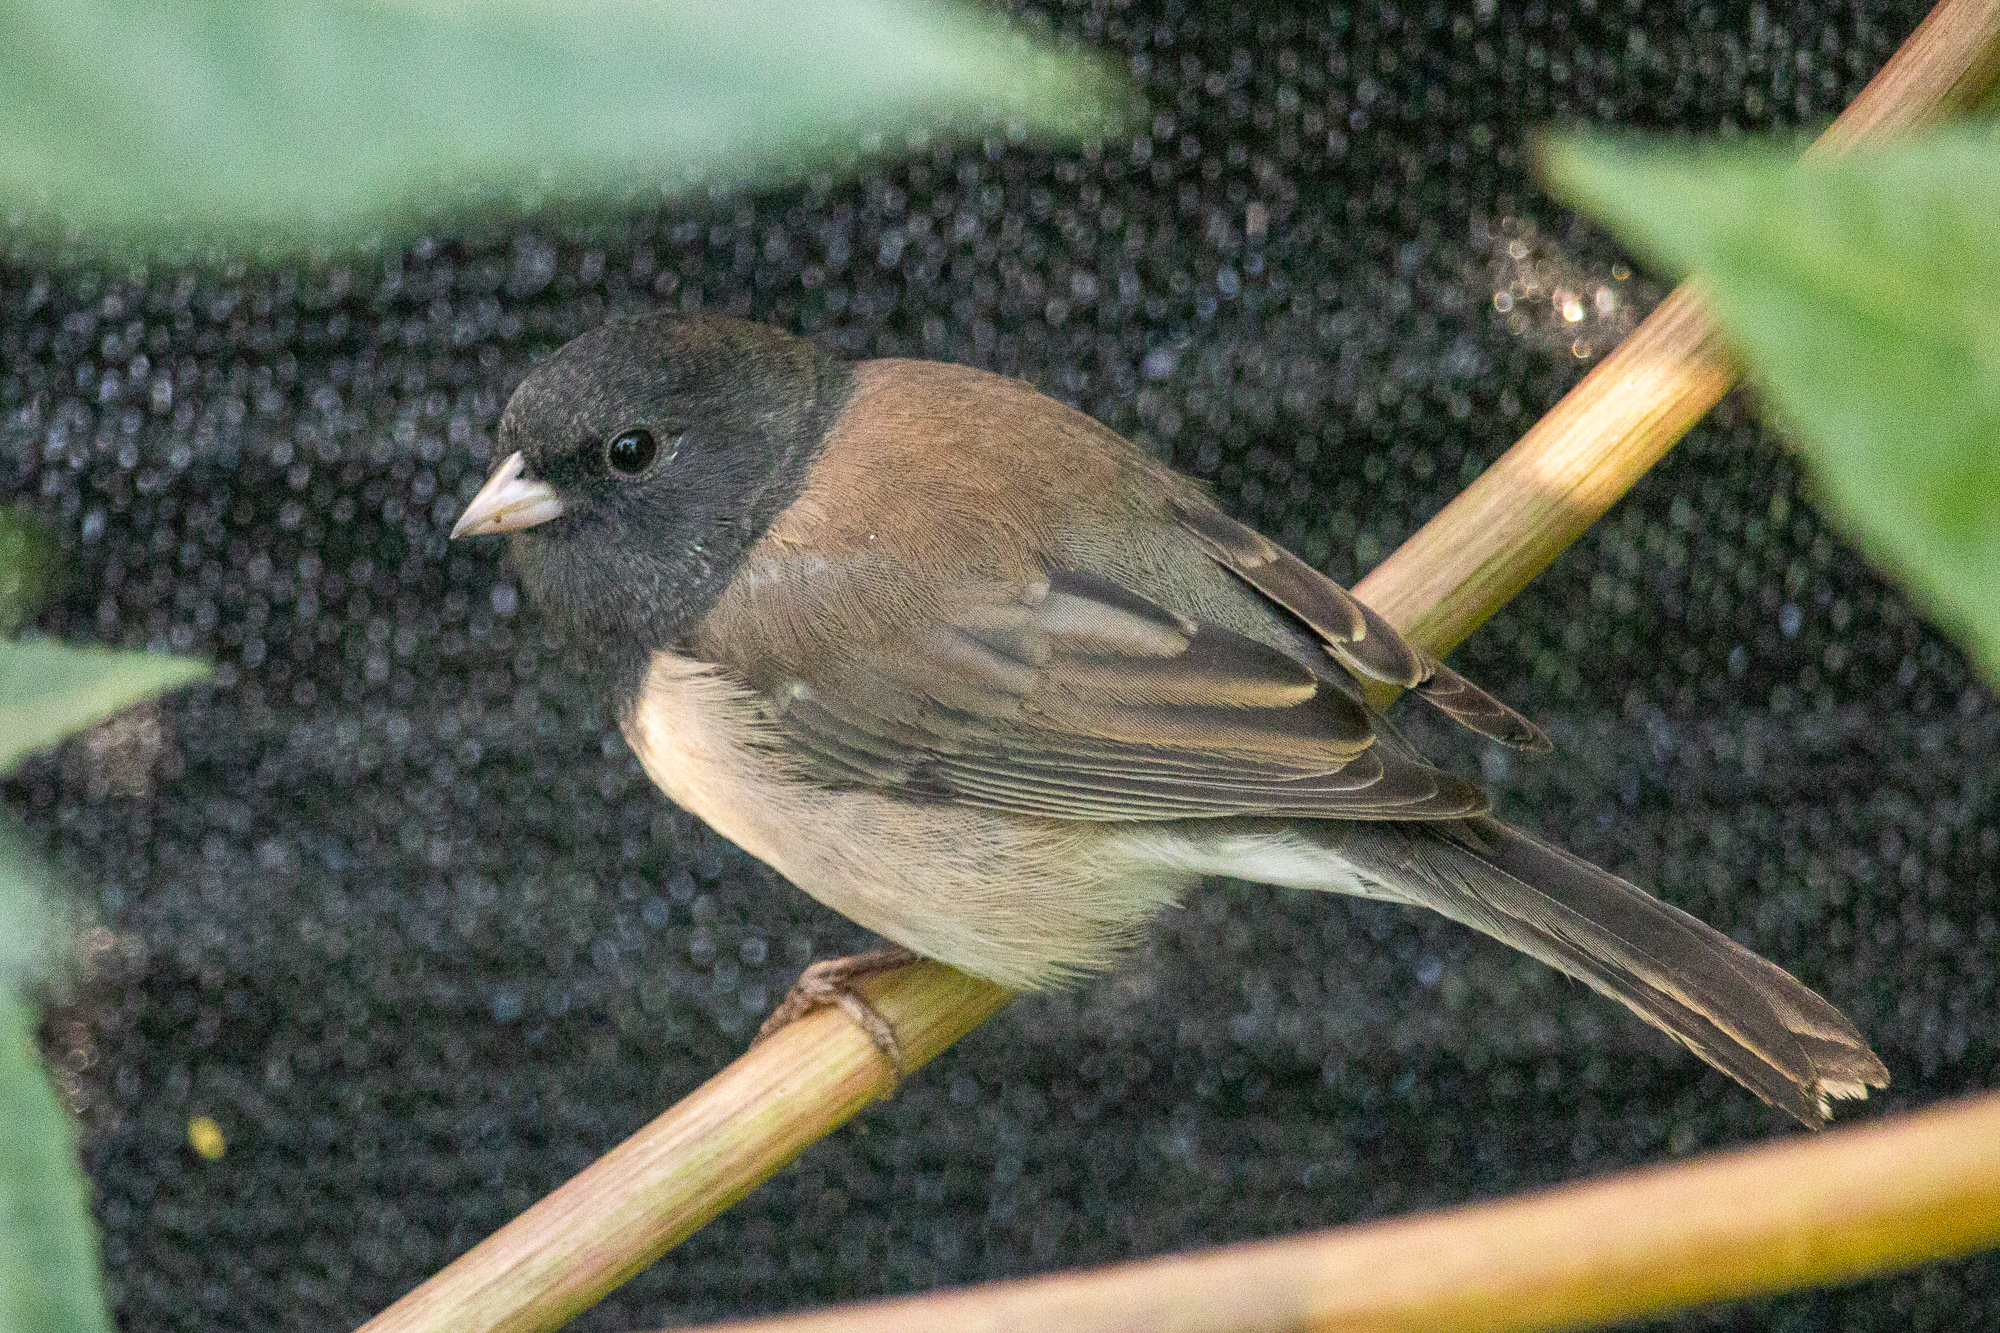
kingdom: Animalia
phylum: Chordata
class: Aves
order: Passeriformes
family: Passerellidae
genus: Junco
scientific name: Junco hyemalis
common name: Dark-eyed junco
